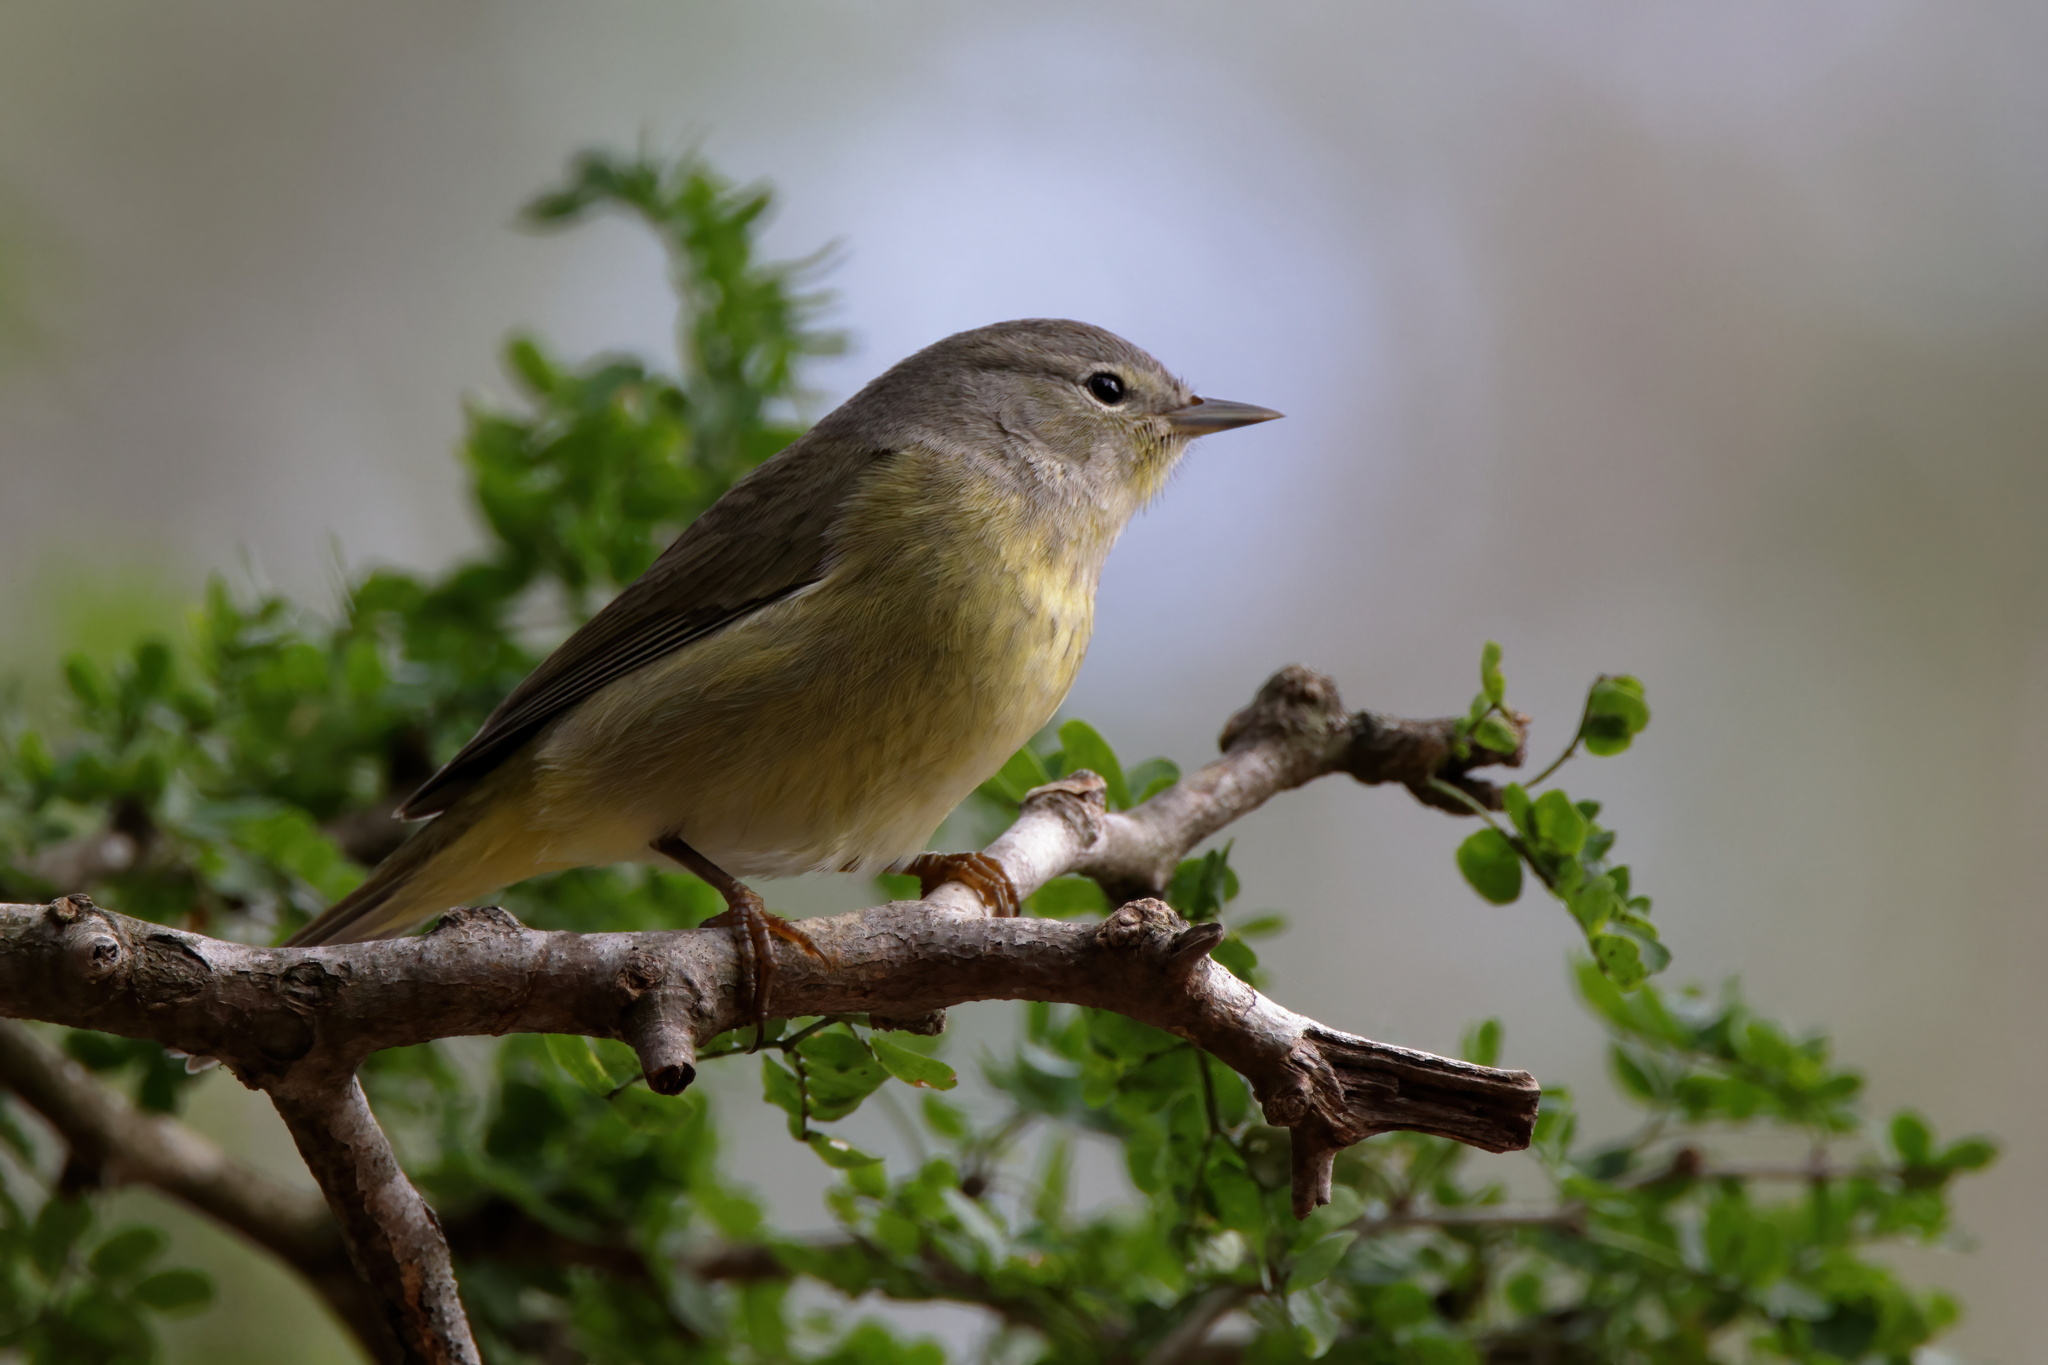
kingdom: Animalia
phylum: Chordata
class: Aves
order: Passeriformes
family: Parulidae
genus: Leiothlypis
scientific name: Leiothlypis celata
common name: Orange-crowned warbler
